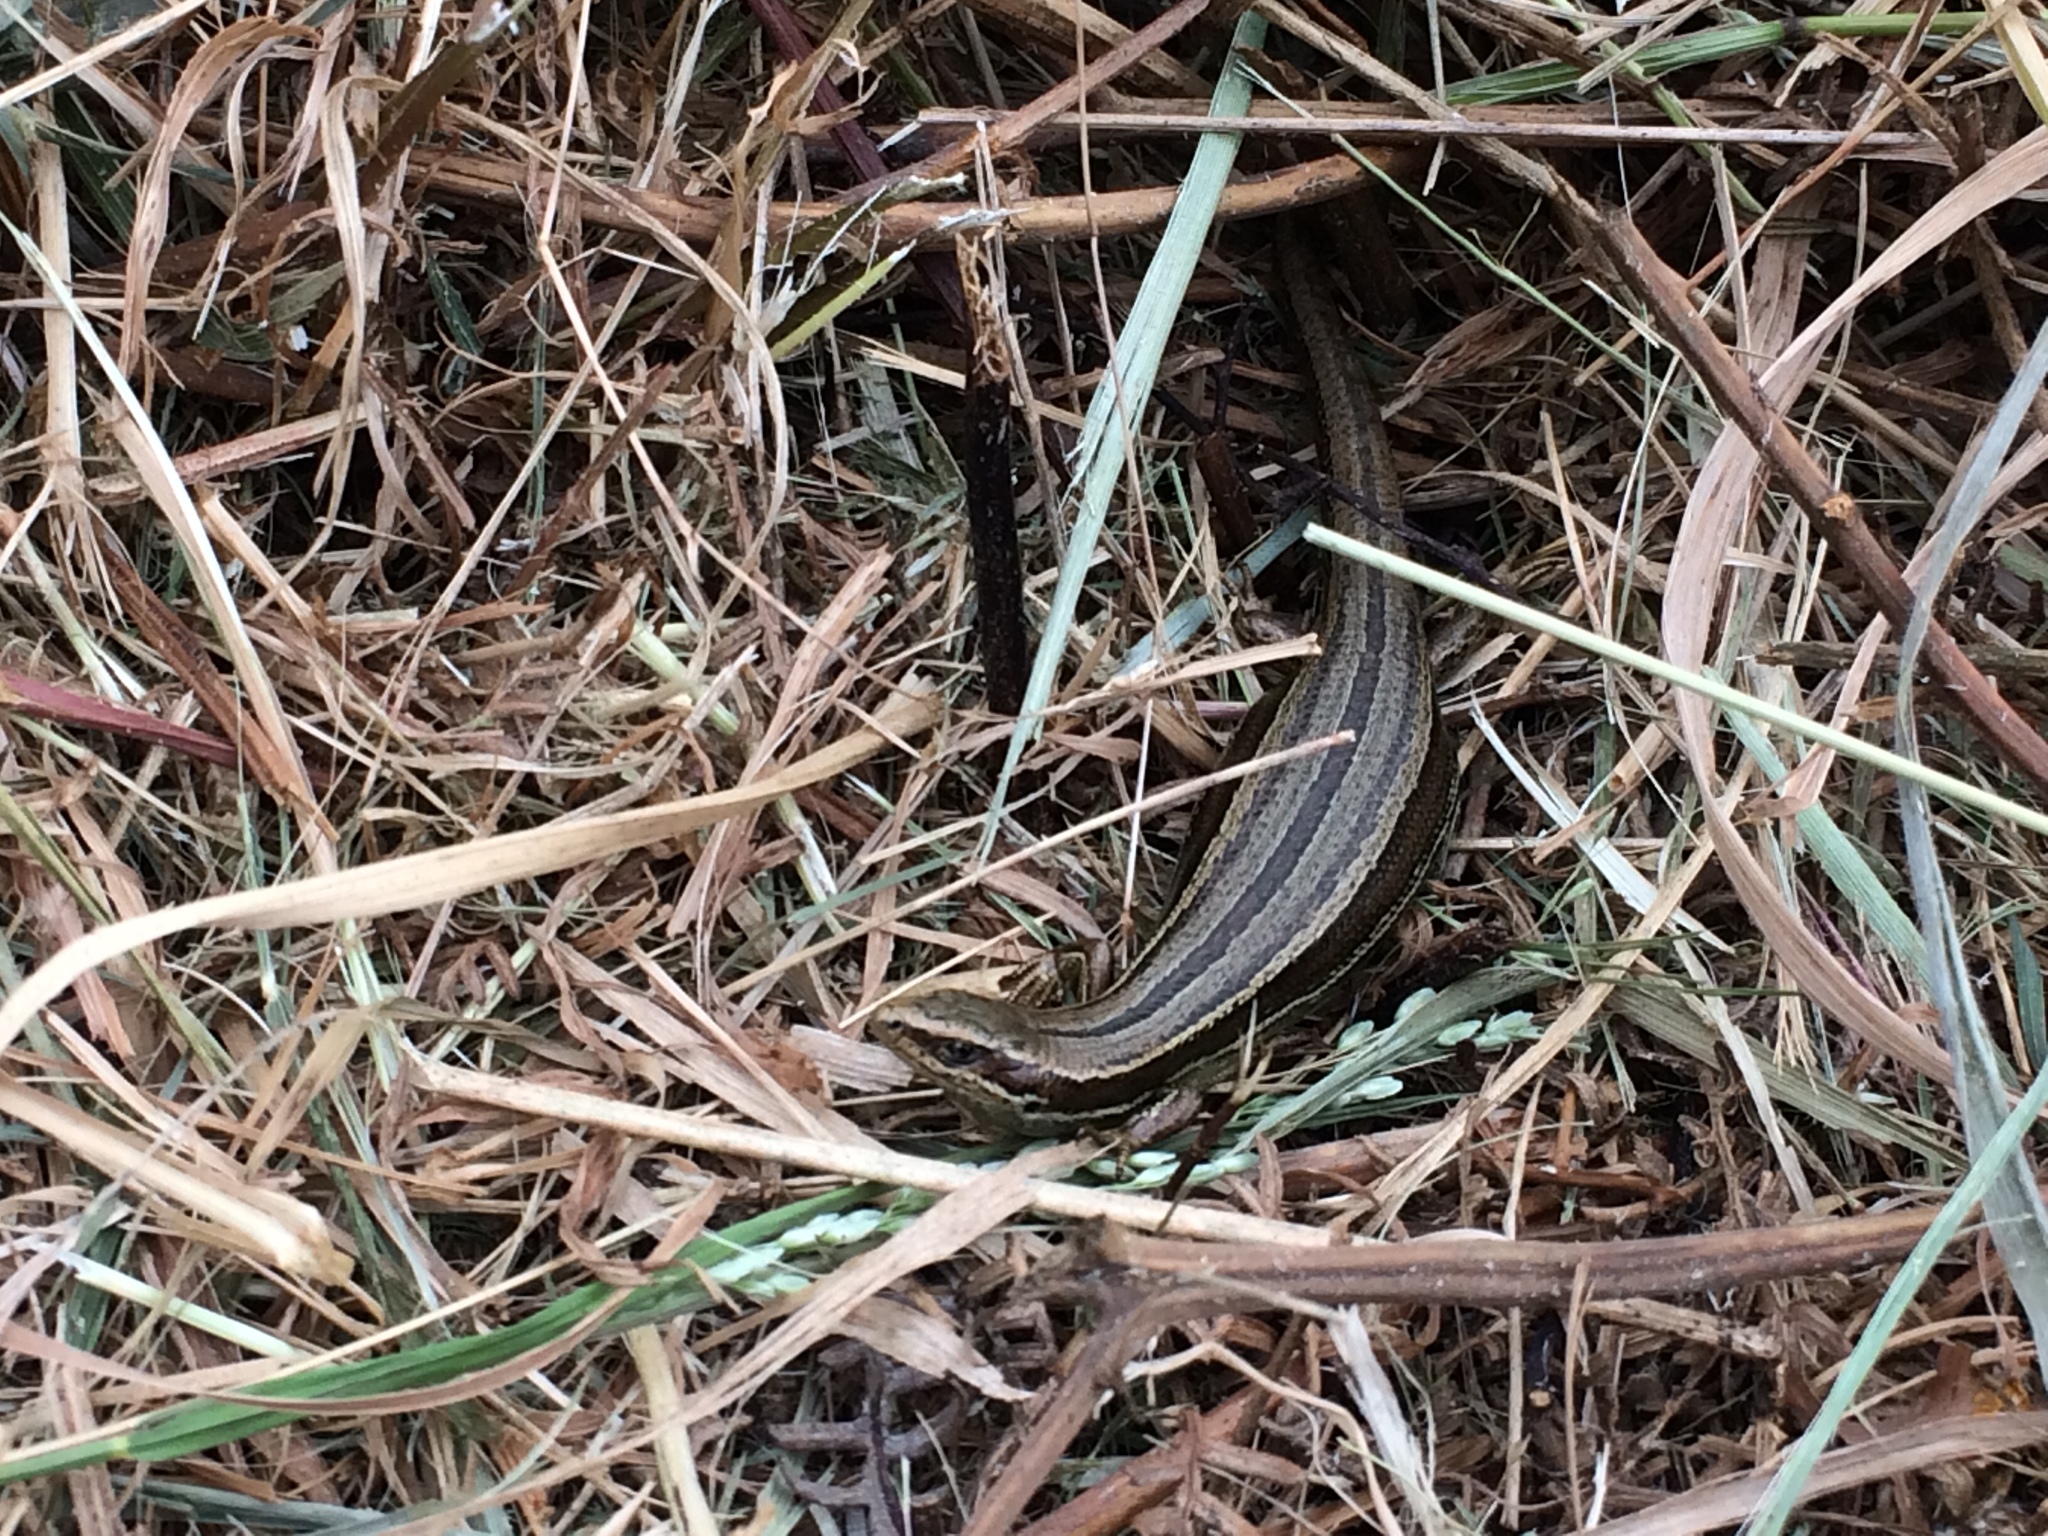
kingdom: Animalia
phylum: Chordata
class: Squamata
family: Scincidae
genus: Oligosoma
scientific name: Oligosoma polychroma
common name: Common new zealand skink
